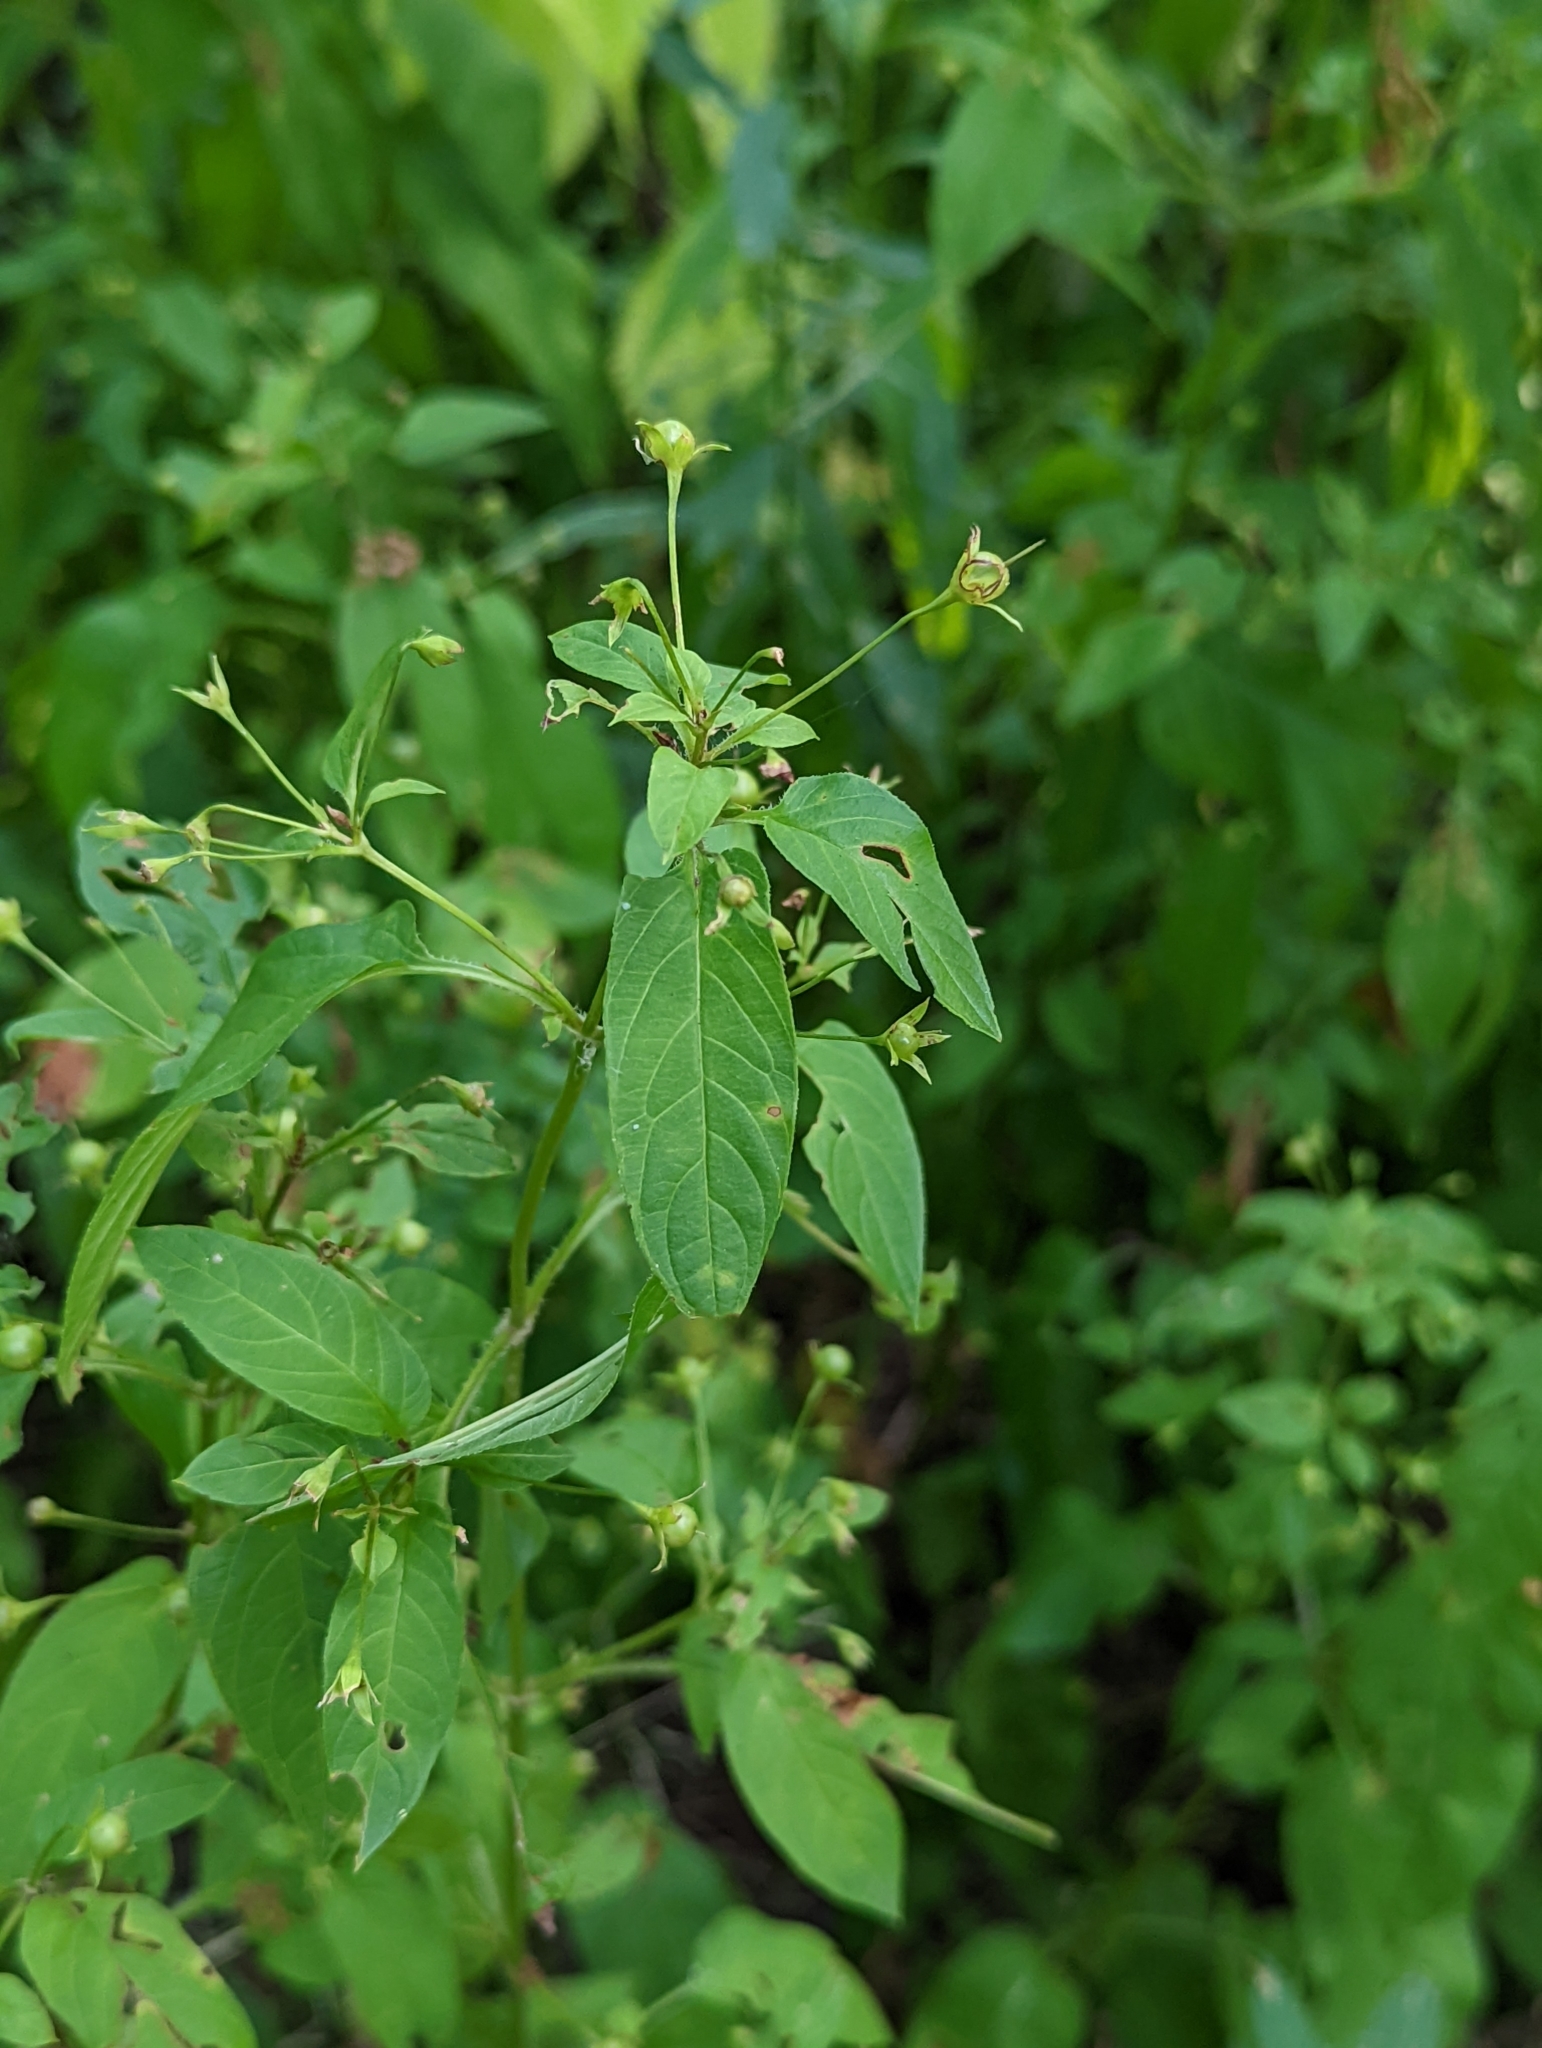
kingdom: Plantae
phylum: Tracheophyta
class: Magnoliopsida
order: Ericales
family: Primulaceae
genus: Lysimachia
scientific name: Lysimachia ciliata
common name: Fringed loosestrife
